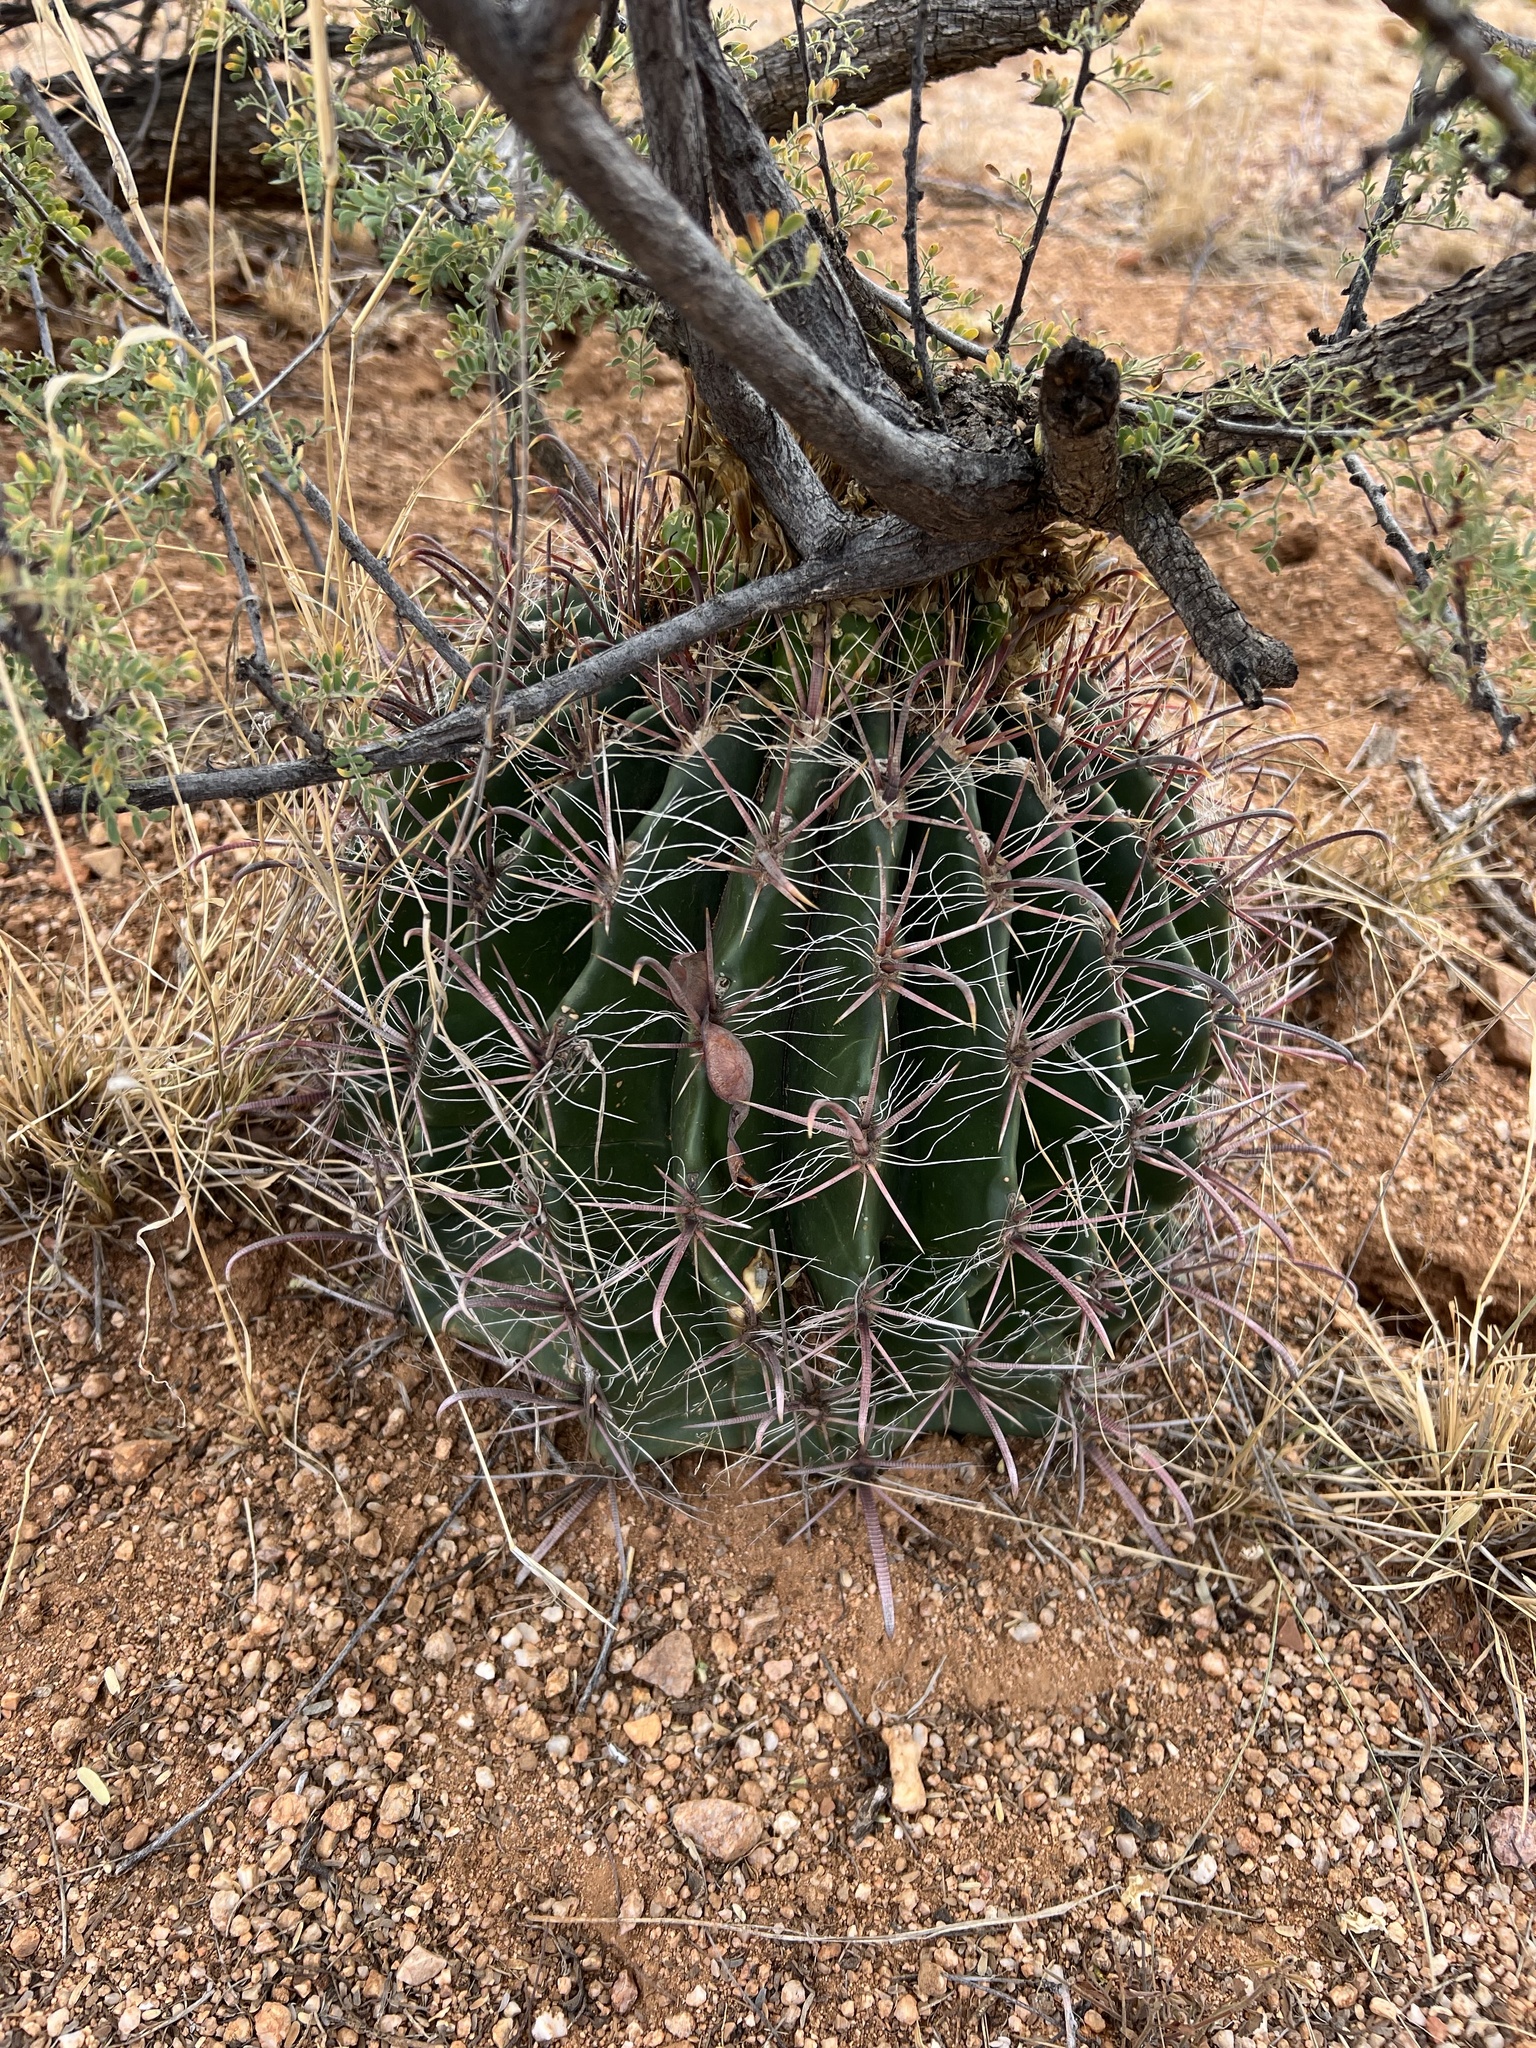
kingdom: Plantae
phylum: Tracheophyta
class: Magnoliopsida
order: Caryophyllales
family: Cactaceae
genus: Ferocactus
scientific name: Ferocactus wislizeni
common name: Candy barrel cactus
